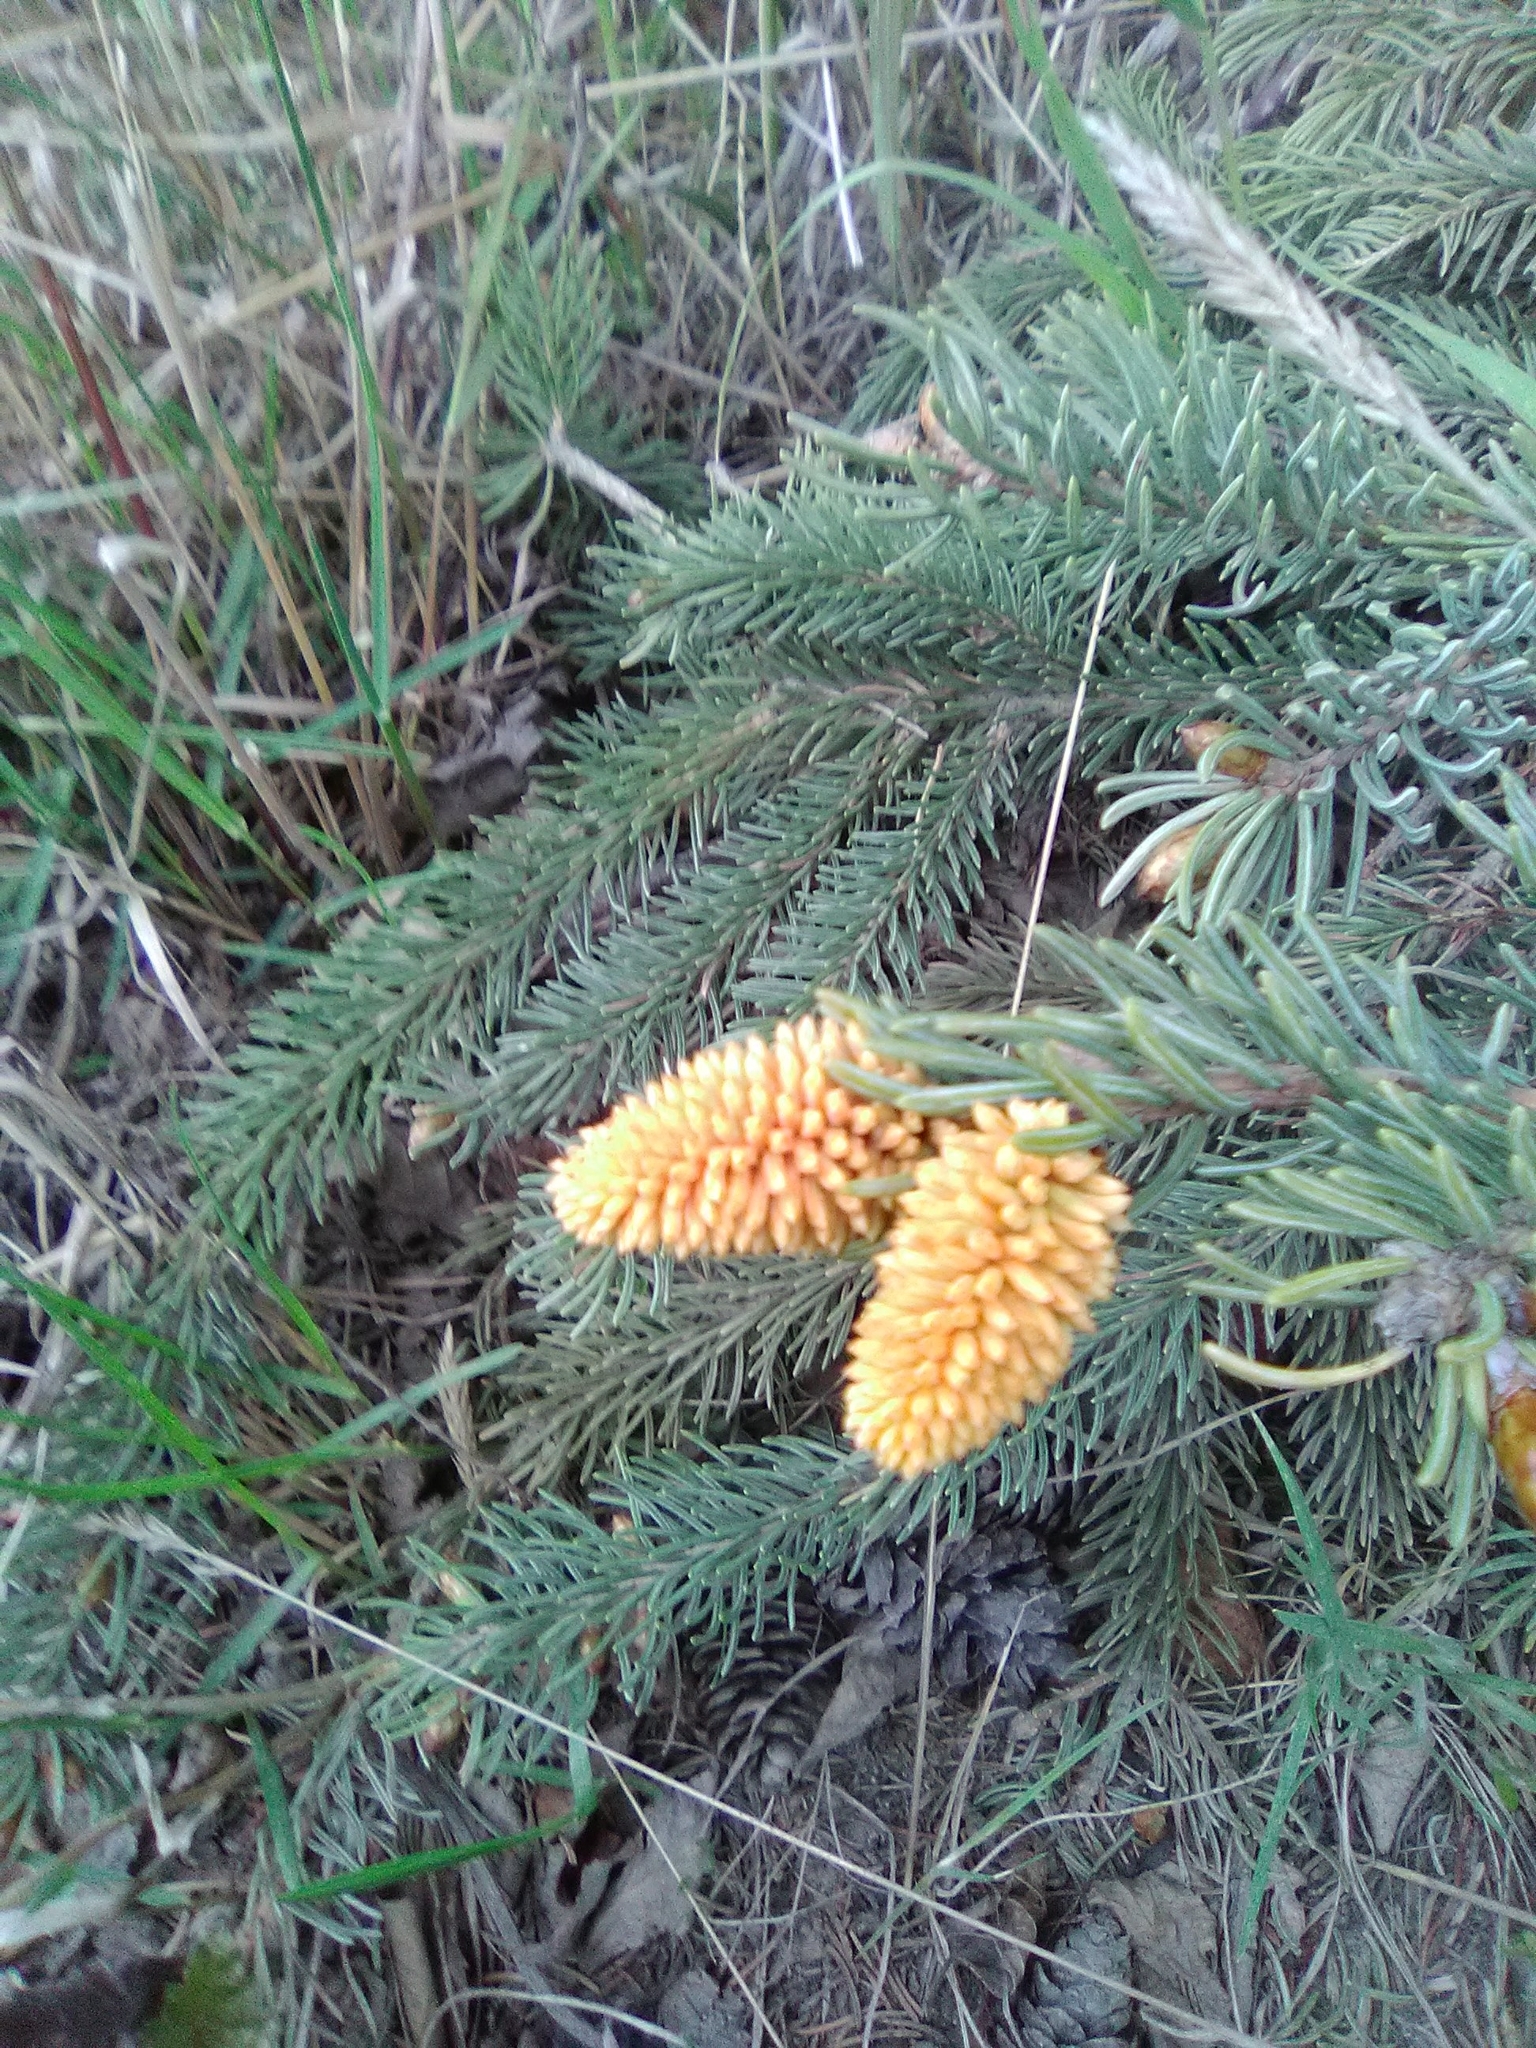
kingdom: Fungi
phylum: Basidiomycota
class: Pucciniomycetes
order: Pucciniales
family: Coleosporiaceae
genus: Chrysomyxa
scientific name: Chrysomyxa woroninii
